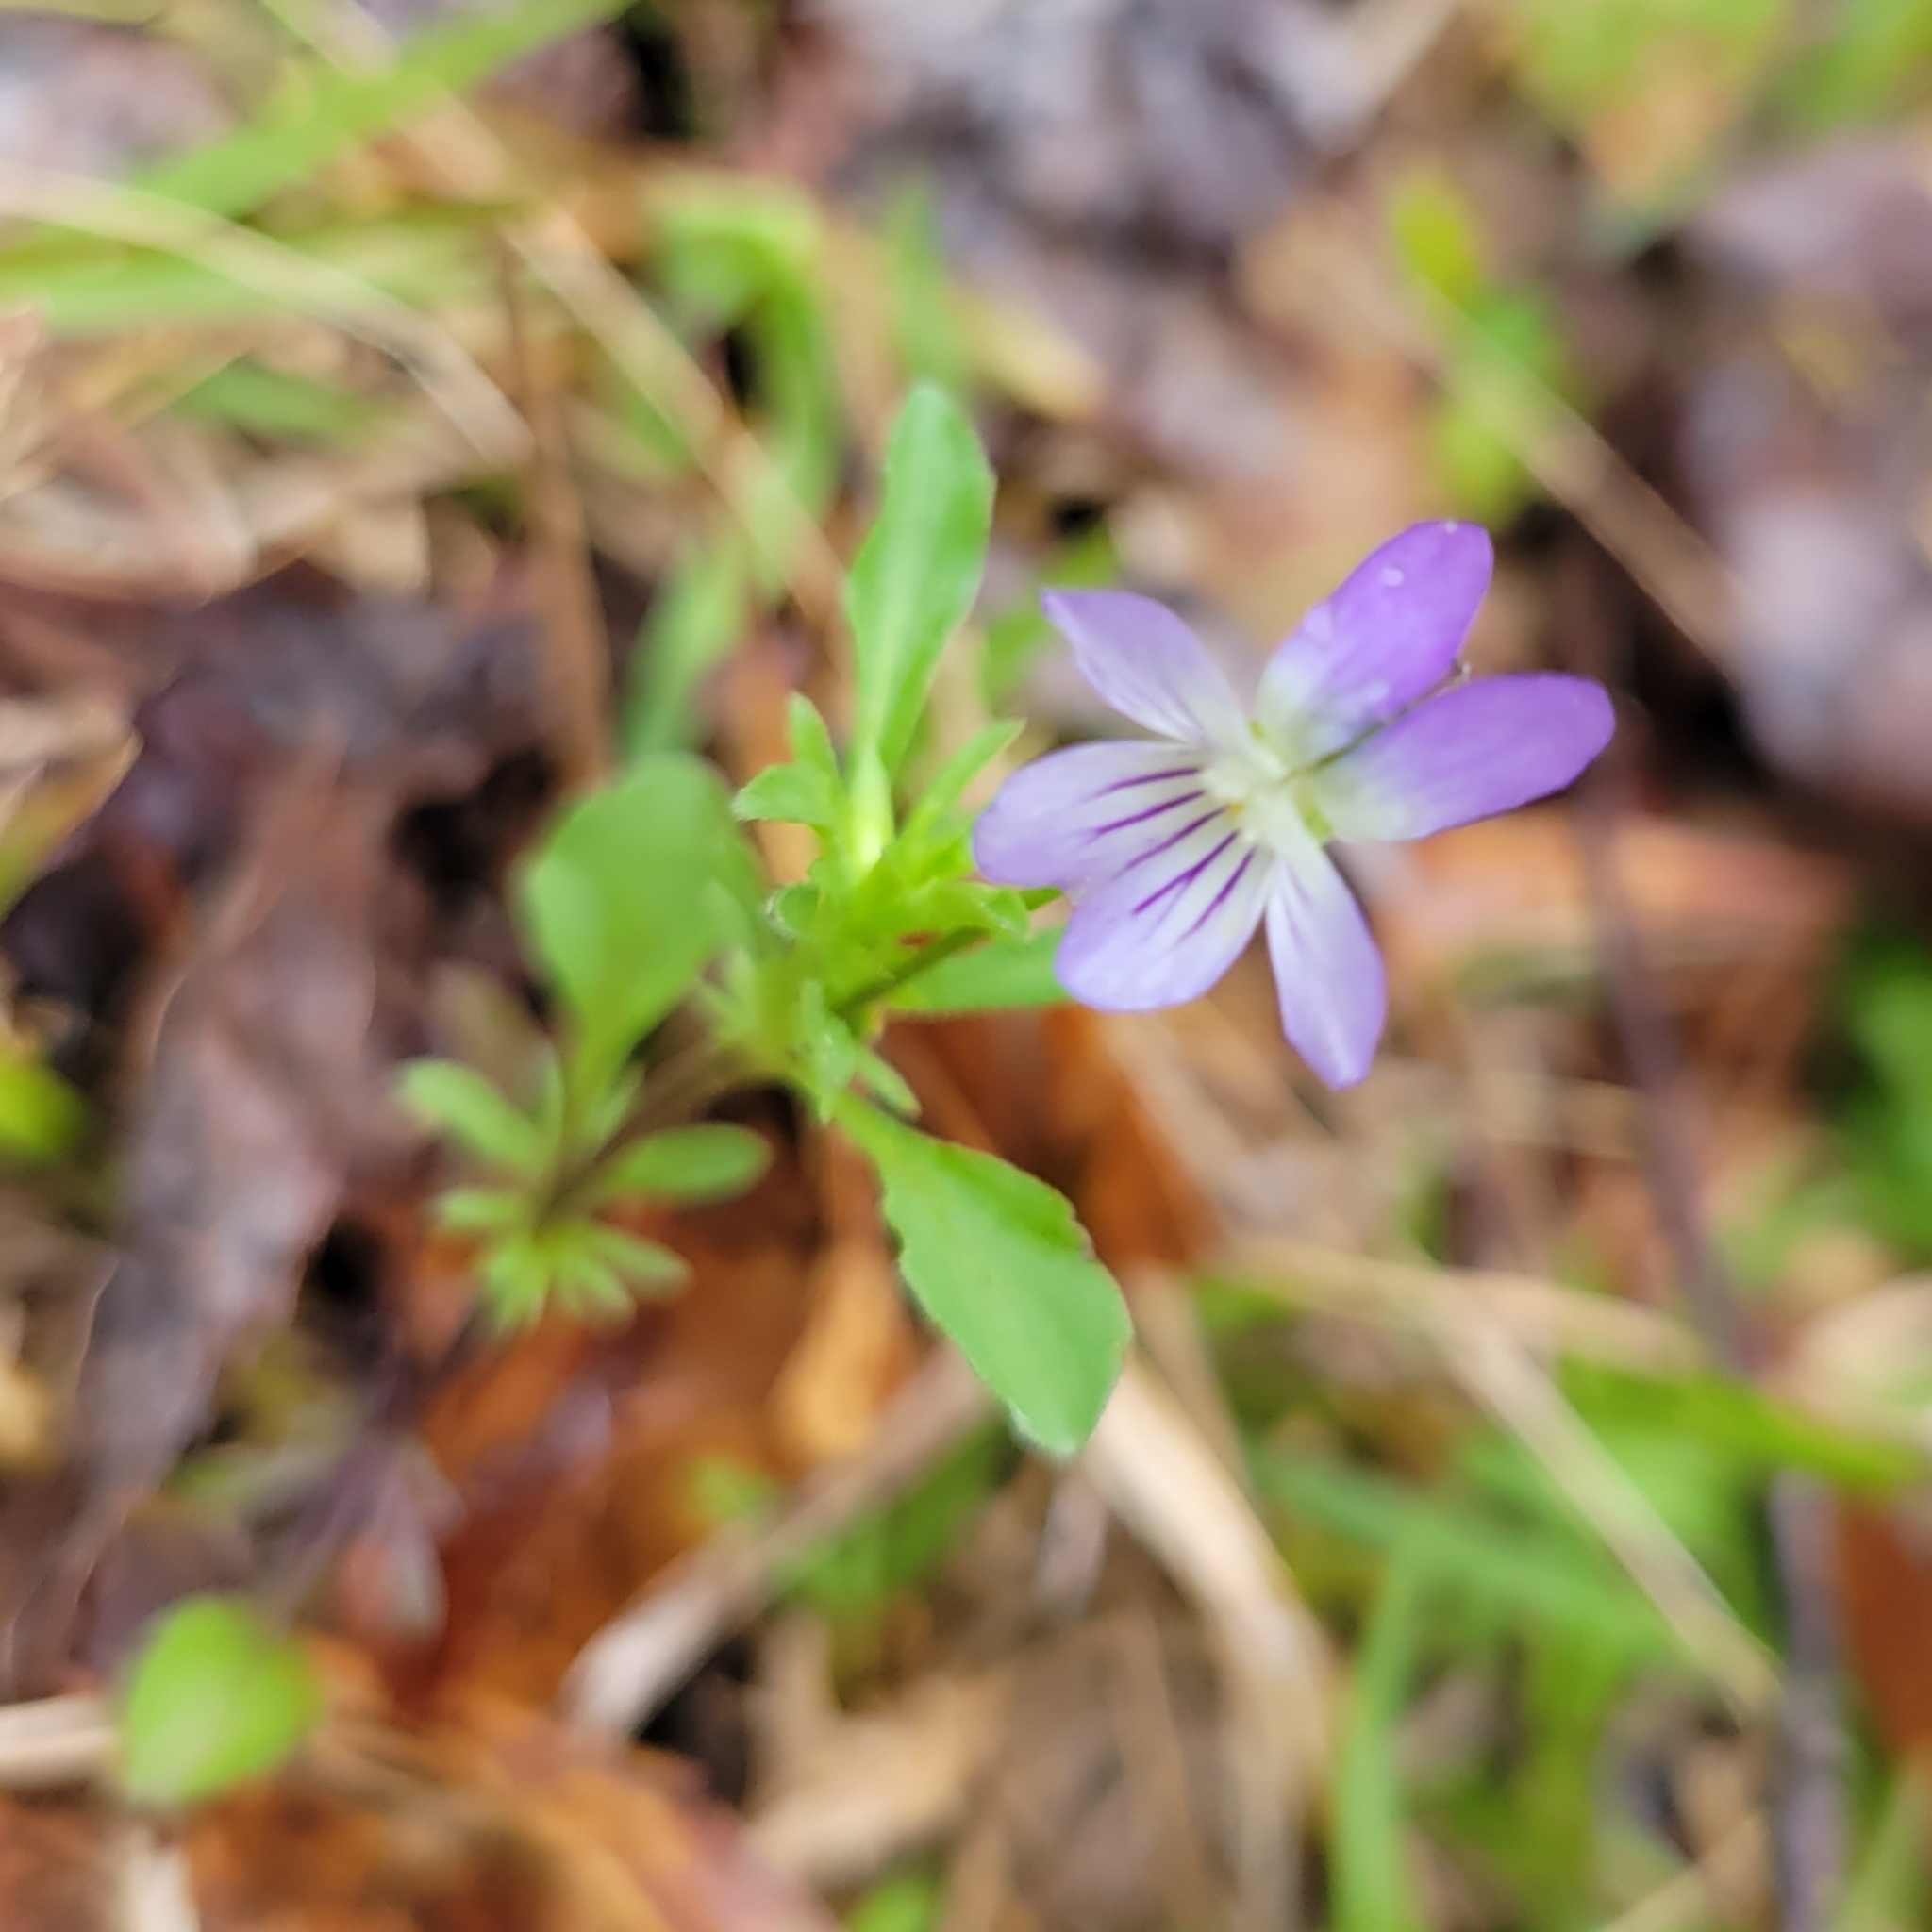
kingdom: Plantae
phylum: Tracheophyta
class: Magnoliopsida
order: Malpighiales
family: Violaceae
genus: Viola
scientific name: Viola rafinesquei
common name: American field pansy
